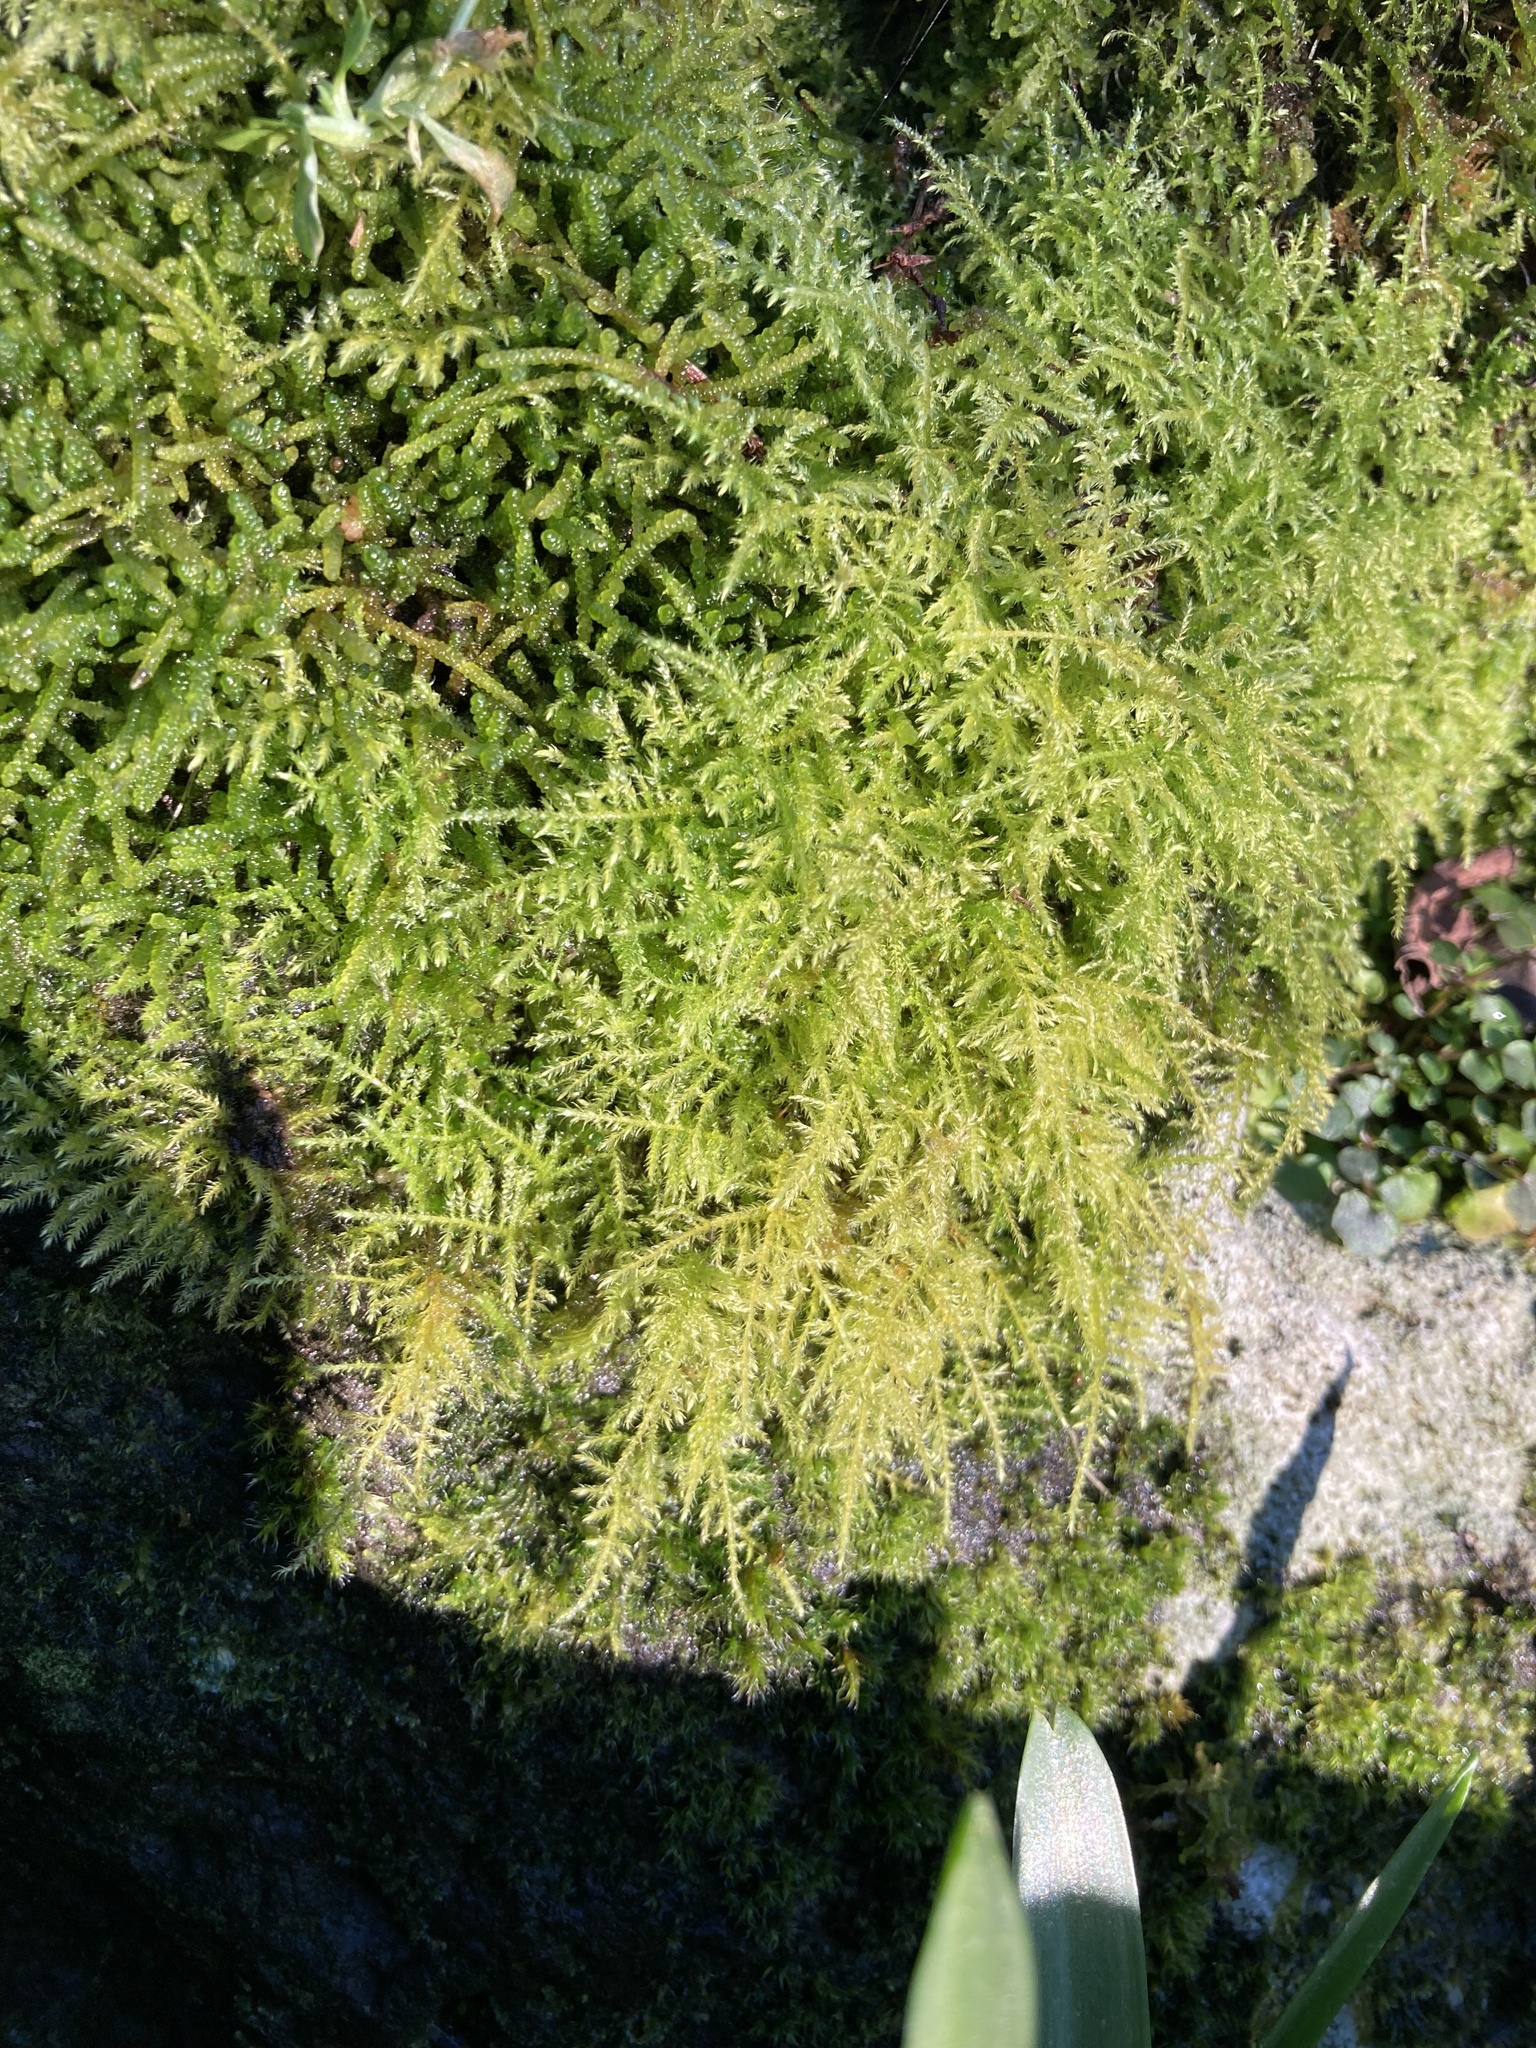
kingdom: Plantae
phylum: Bryophyta
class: Bryopsida
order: Hypnales
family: Brachytheciaceae
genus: Kindbergia
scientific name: Kindbergia praelonga
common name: Slender beaked moss
